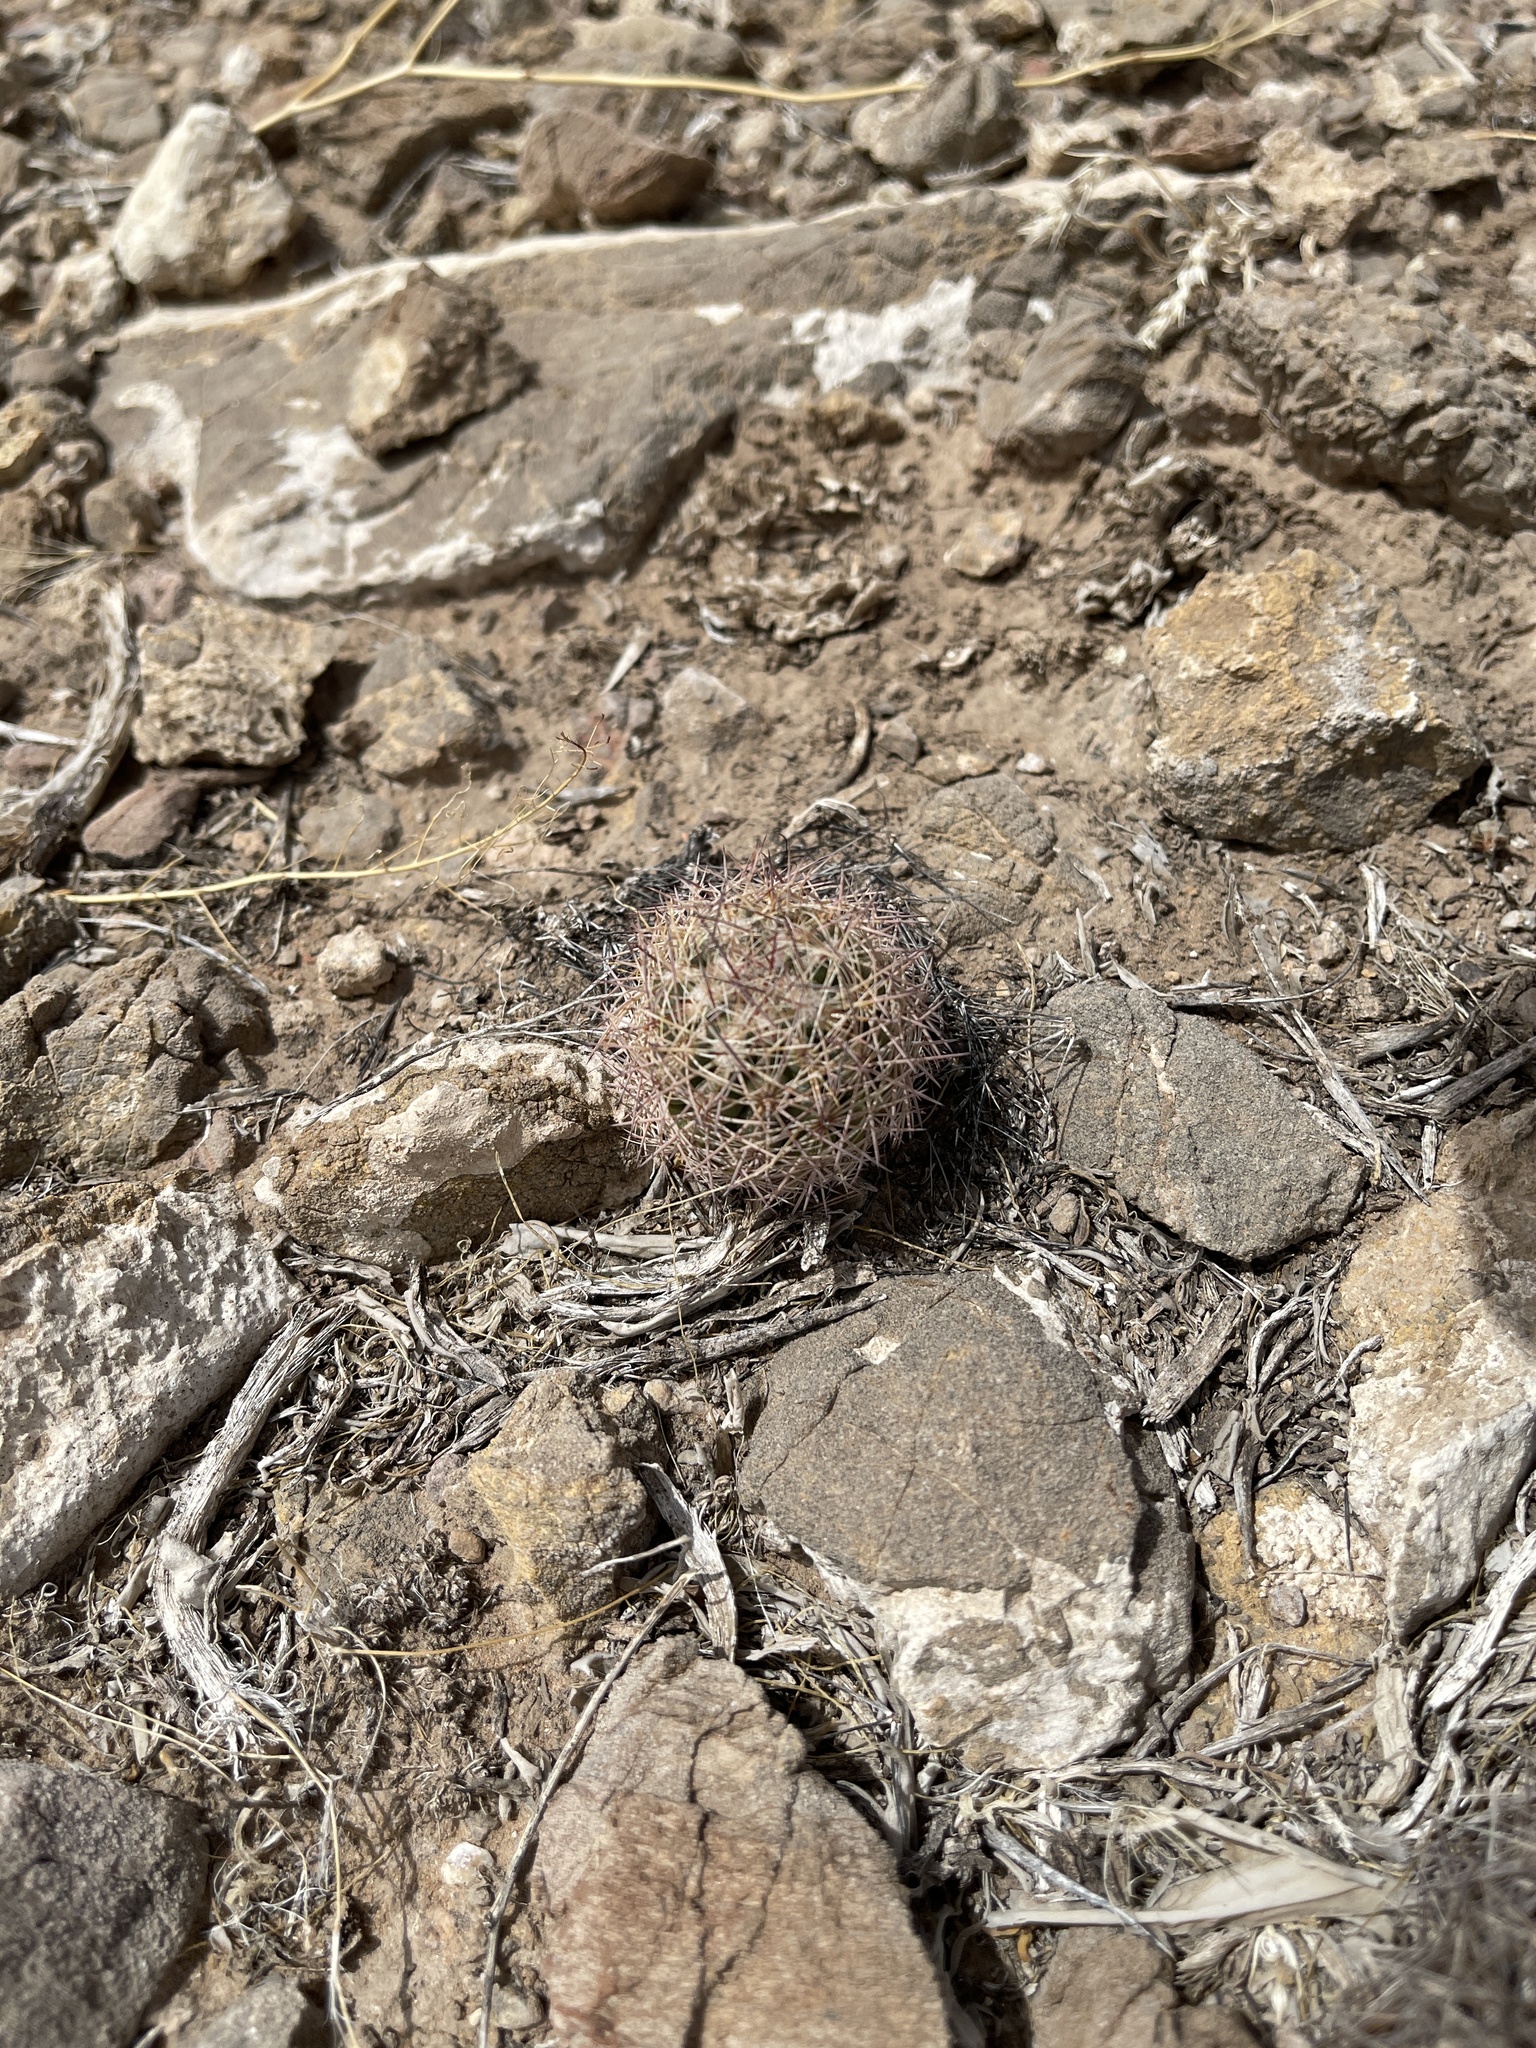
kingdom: Plantae
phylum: Tracheophyta
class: Magnoliopsida
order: Caryophyllales
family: Cactaceae
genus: Sclerocactus
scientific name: Sclerocactus intertextus
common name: White fish-hook cactus
